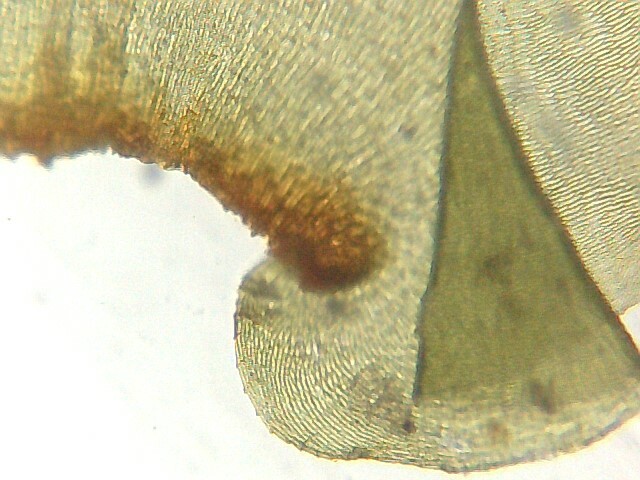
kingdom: Plantae
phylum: Bryophyta
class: Bryopsida
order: Hypnales
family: Hylocomiaceae
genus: Loeskeobryum
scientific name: Loeskeobryum brevirostre
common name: Short-beaked wood-moss
